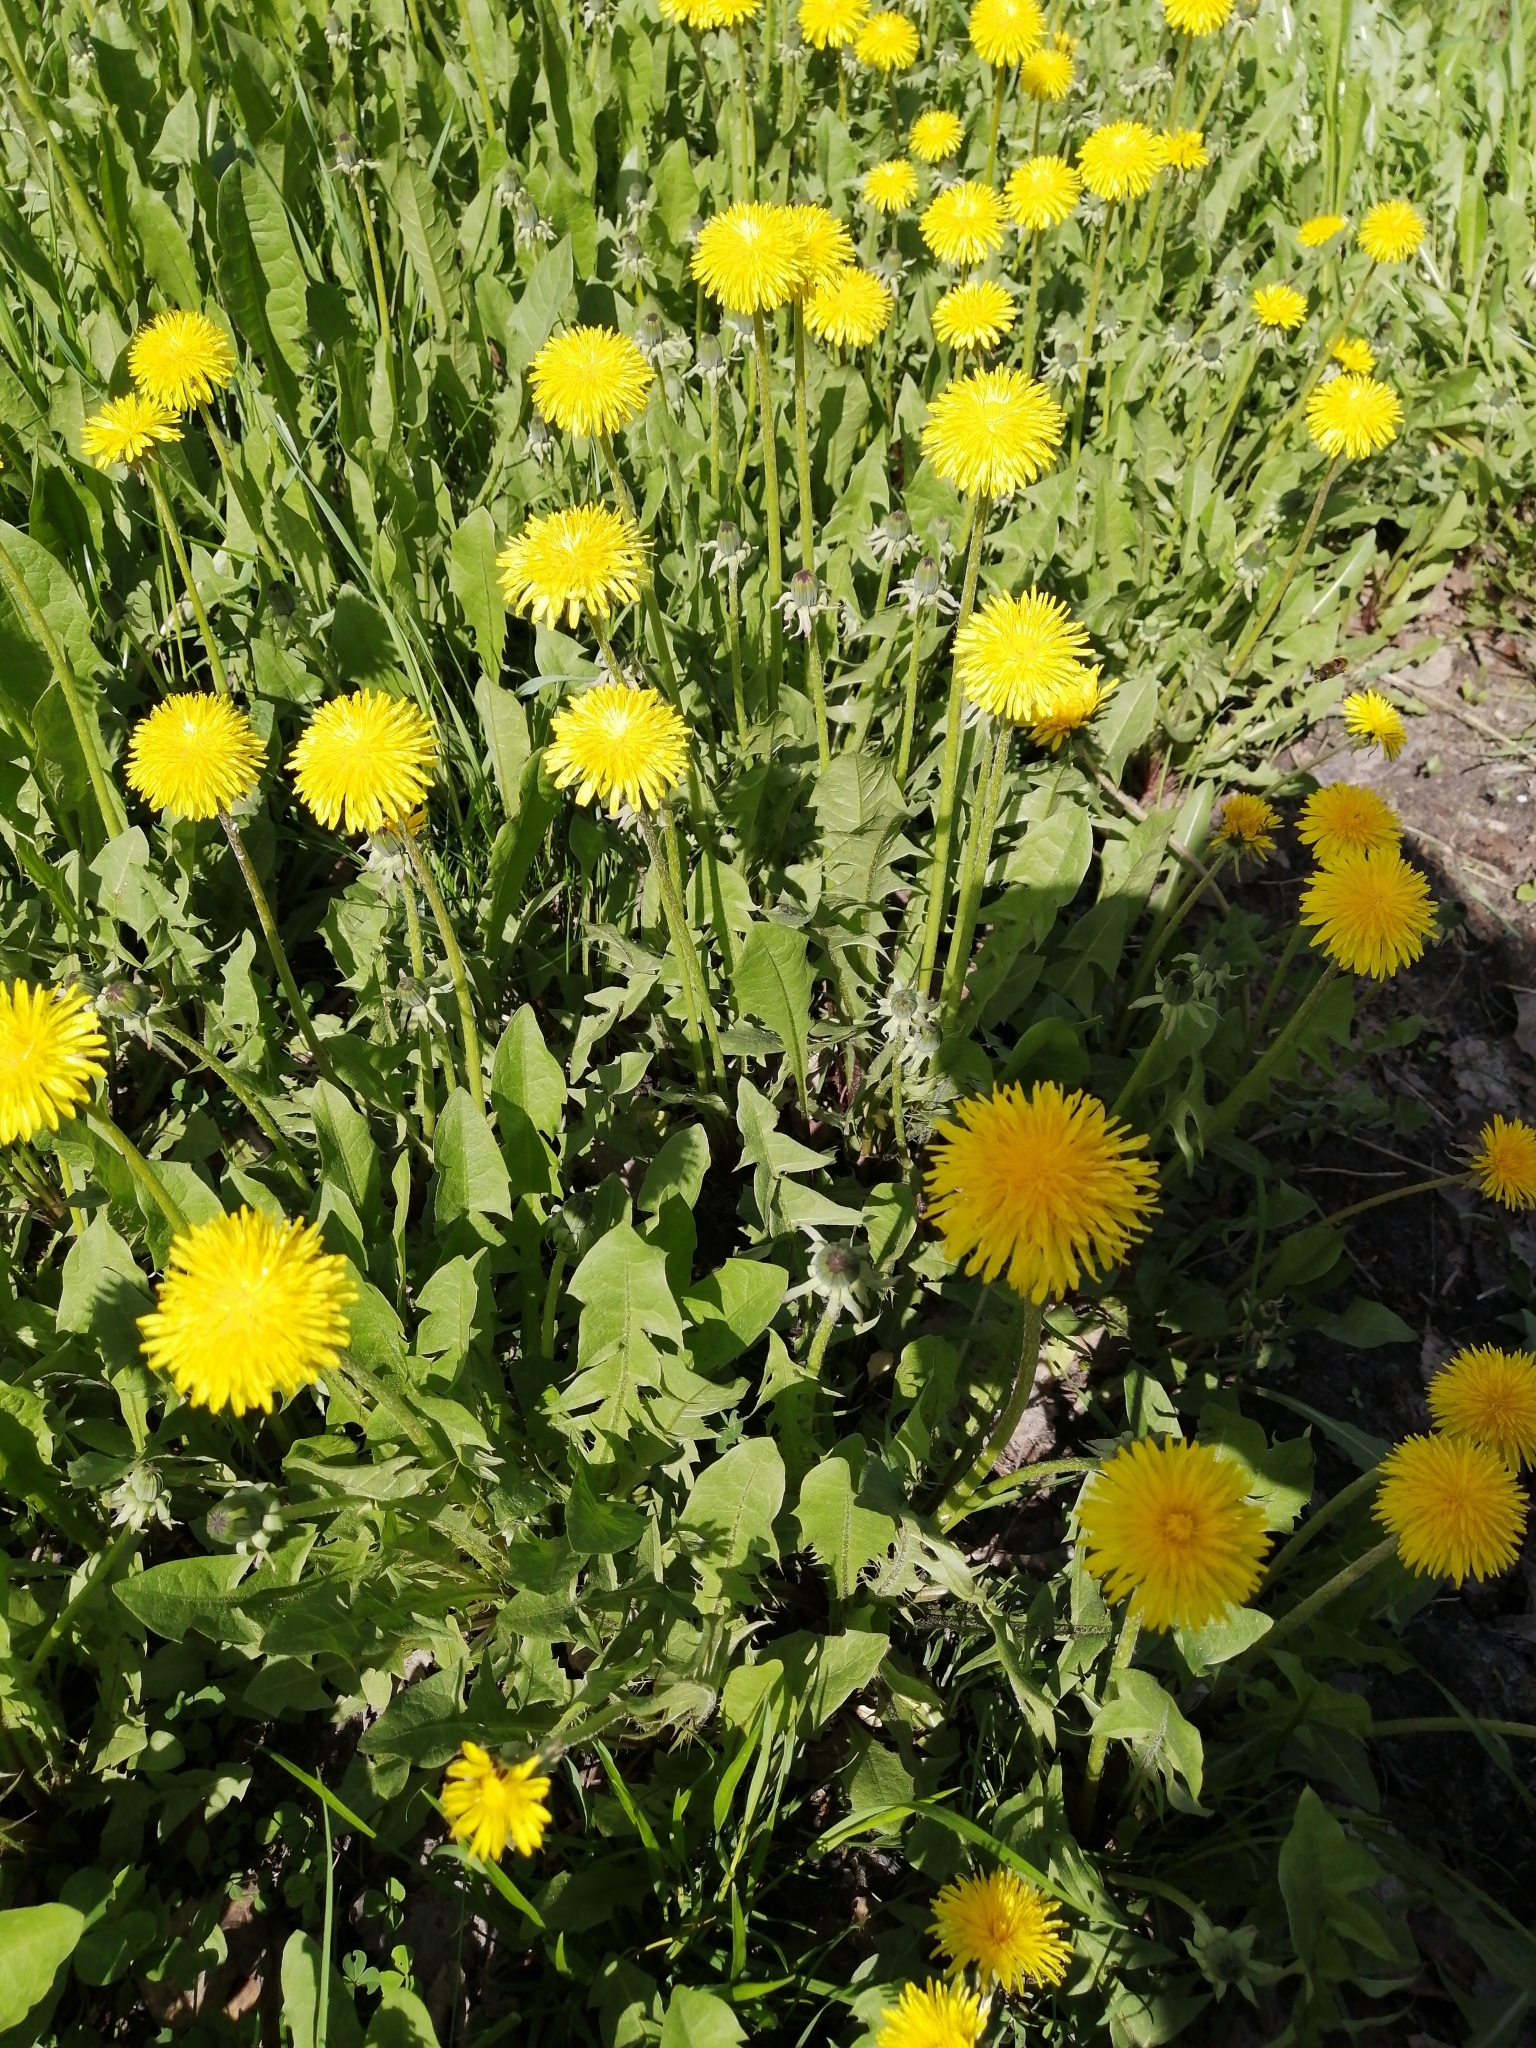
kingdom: Plantae
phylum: Tracheophyta
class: Magnoliopsida
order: Asterales
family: Asteraceae
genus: Taraxacum
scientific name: Taraxacum officinale
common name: Common dandelion
